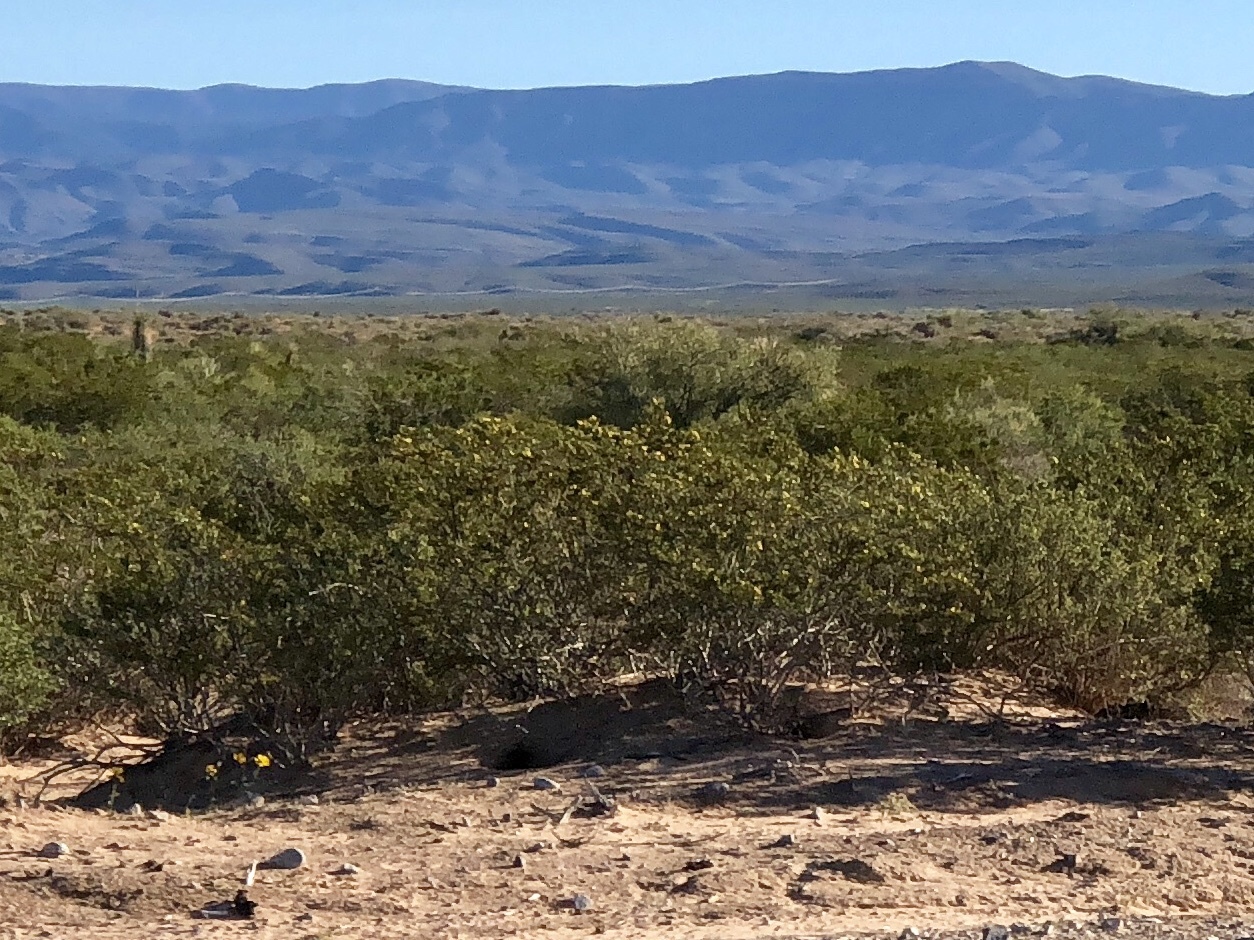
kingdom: Plantae
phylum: Tracheophyta
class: Magnoliopsida
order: Zygophyllales
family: Zygophyllaceae
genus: Larrea
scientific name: Larrea tridentata
